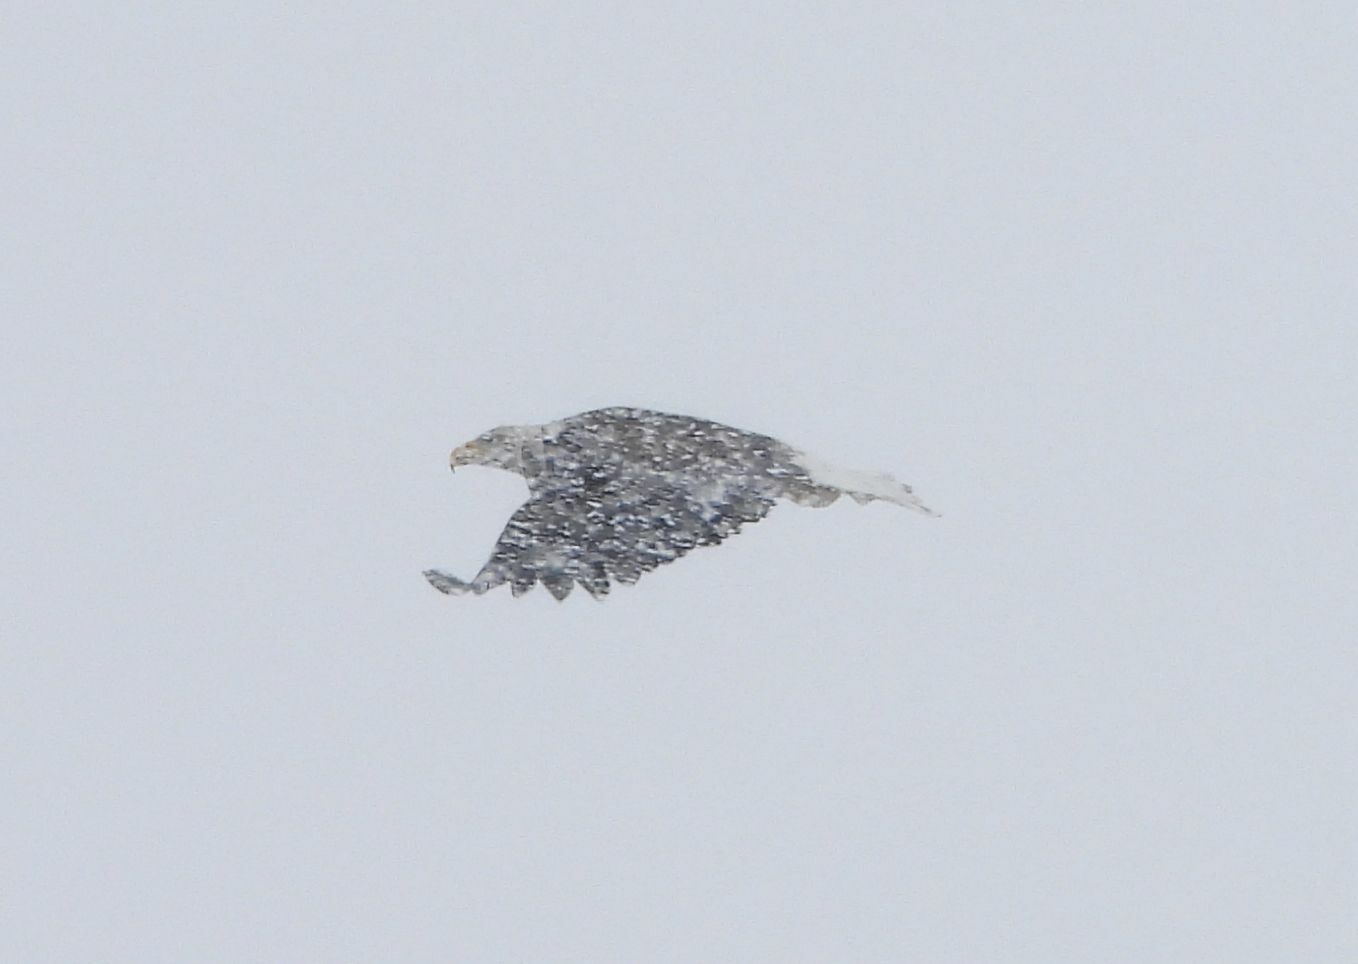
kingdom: Animalia
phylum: Chordata
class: Aves
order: Accipitriformes
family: Accipitridae
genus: Haliaeetus
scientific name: Haliaeetus leucocephalus
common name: Bald eagle
